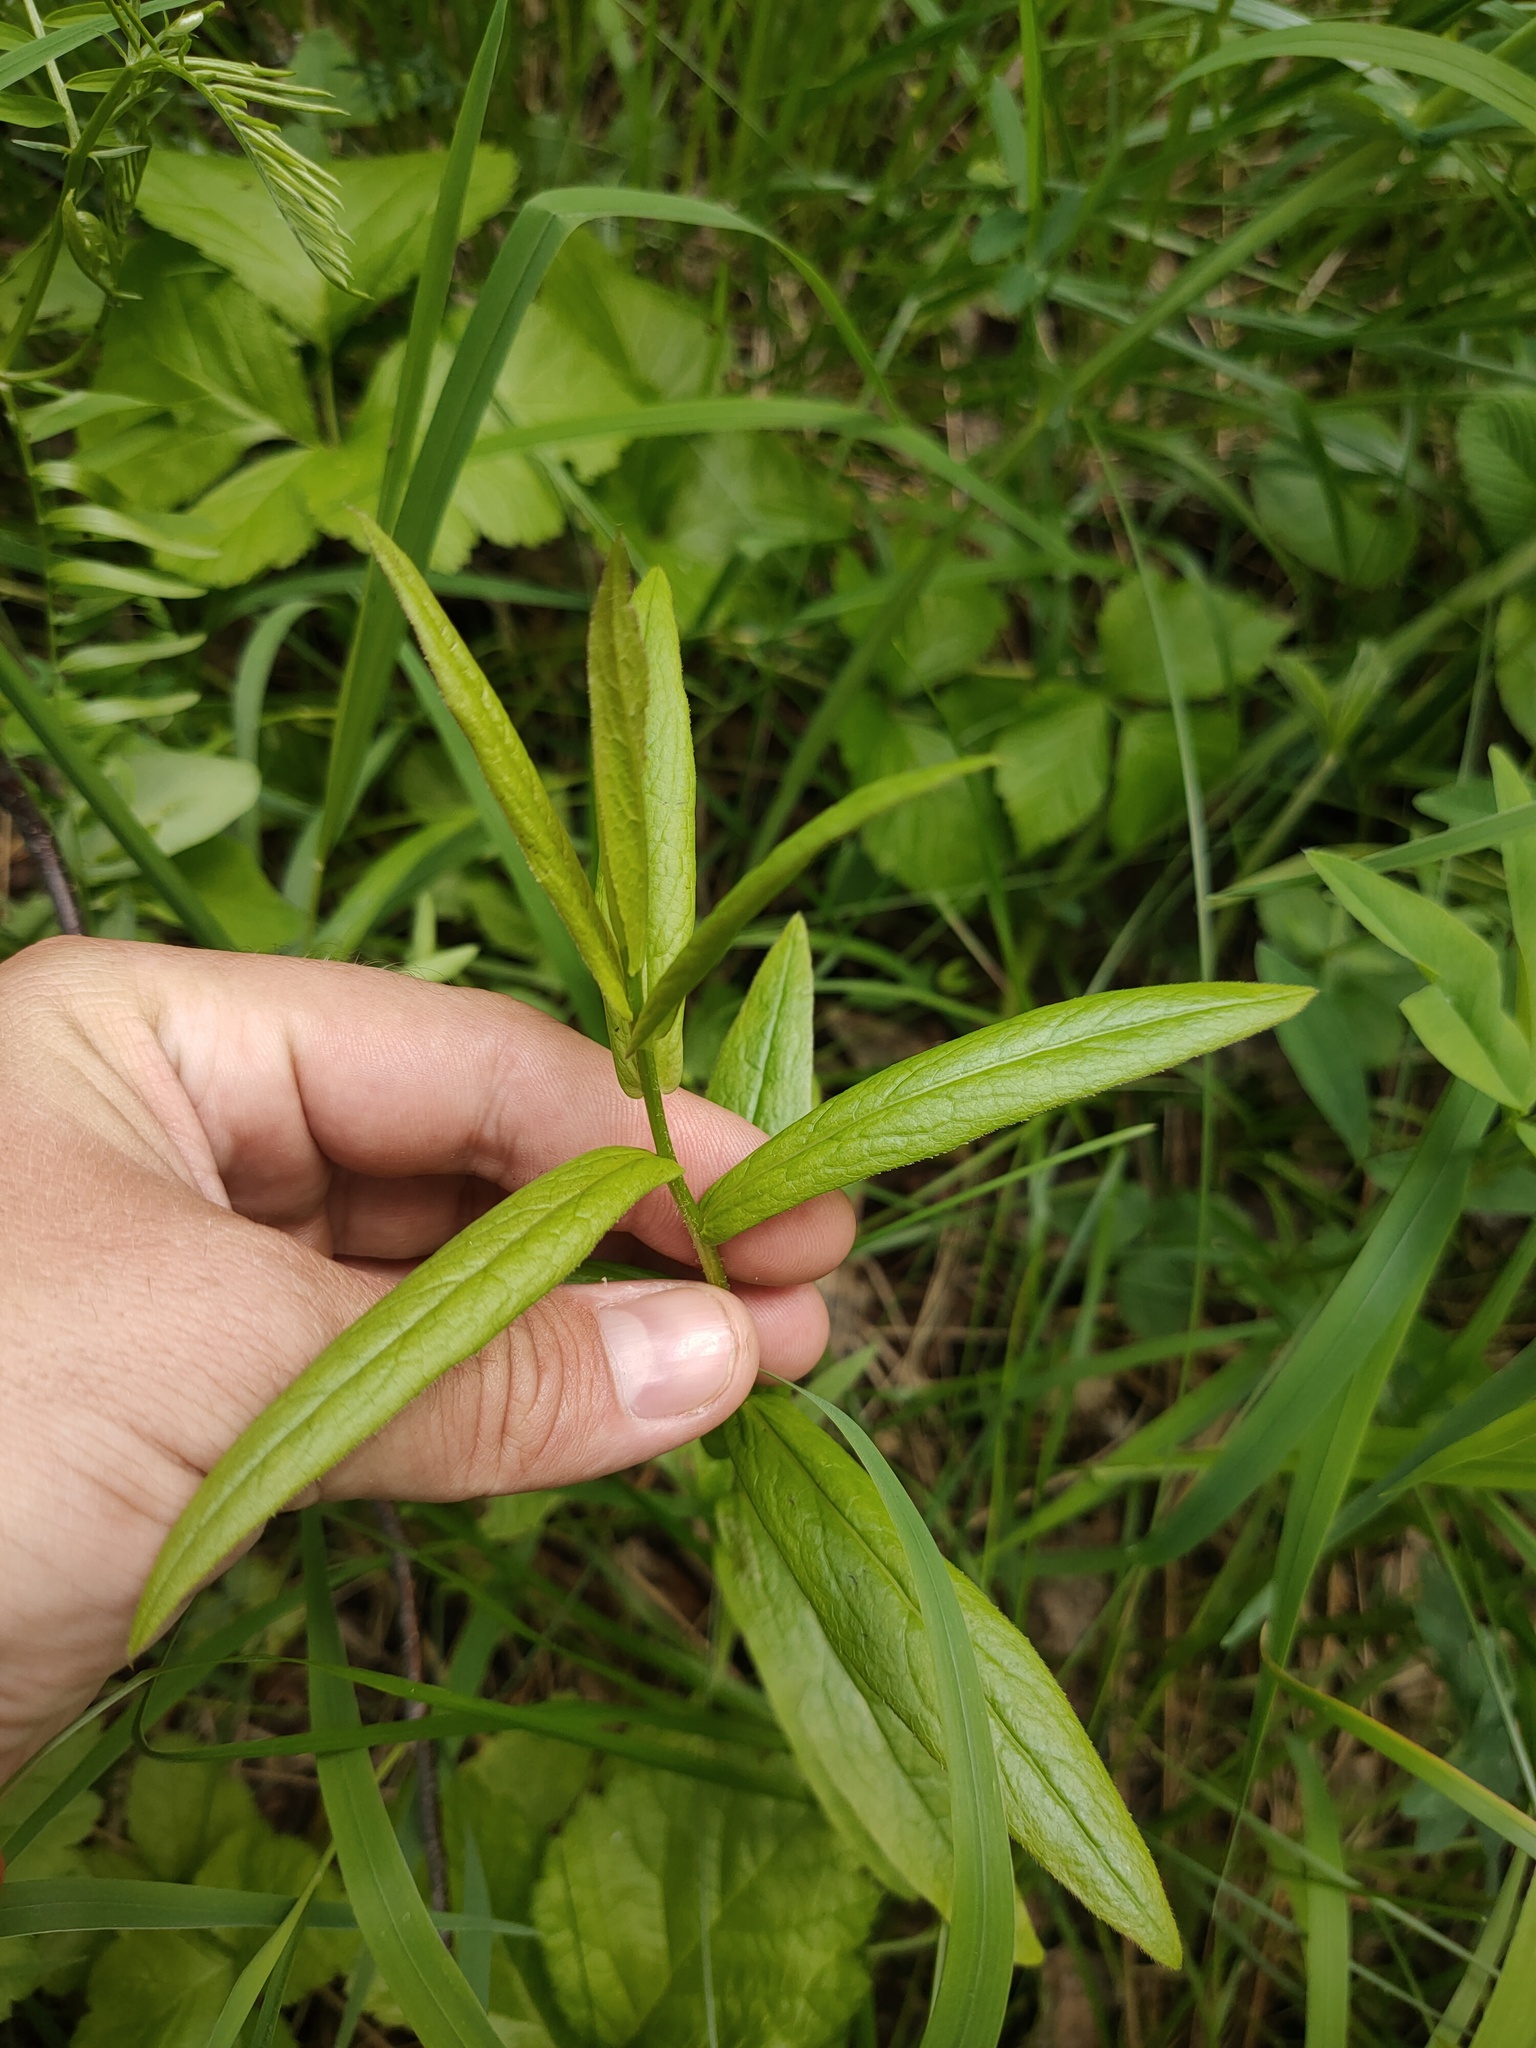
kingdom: Plantae
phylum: Tracheophyta
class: Magnoliopsida
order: Asterales
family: Asteraceae
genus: Pentanema
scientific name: Pentanema salicinum
